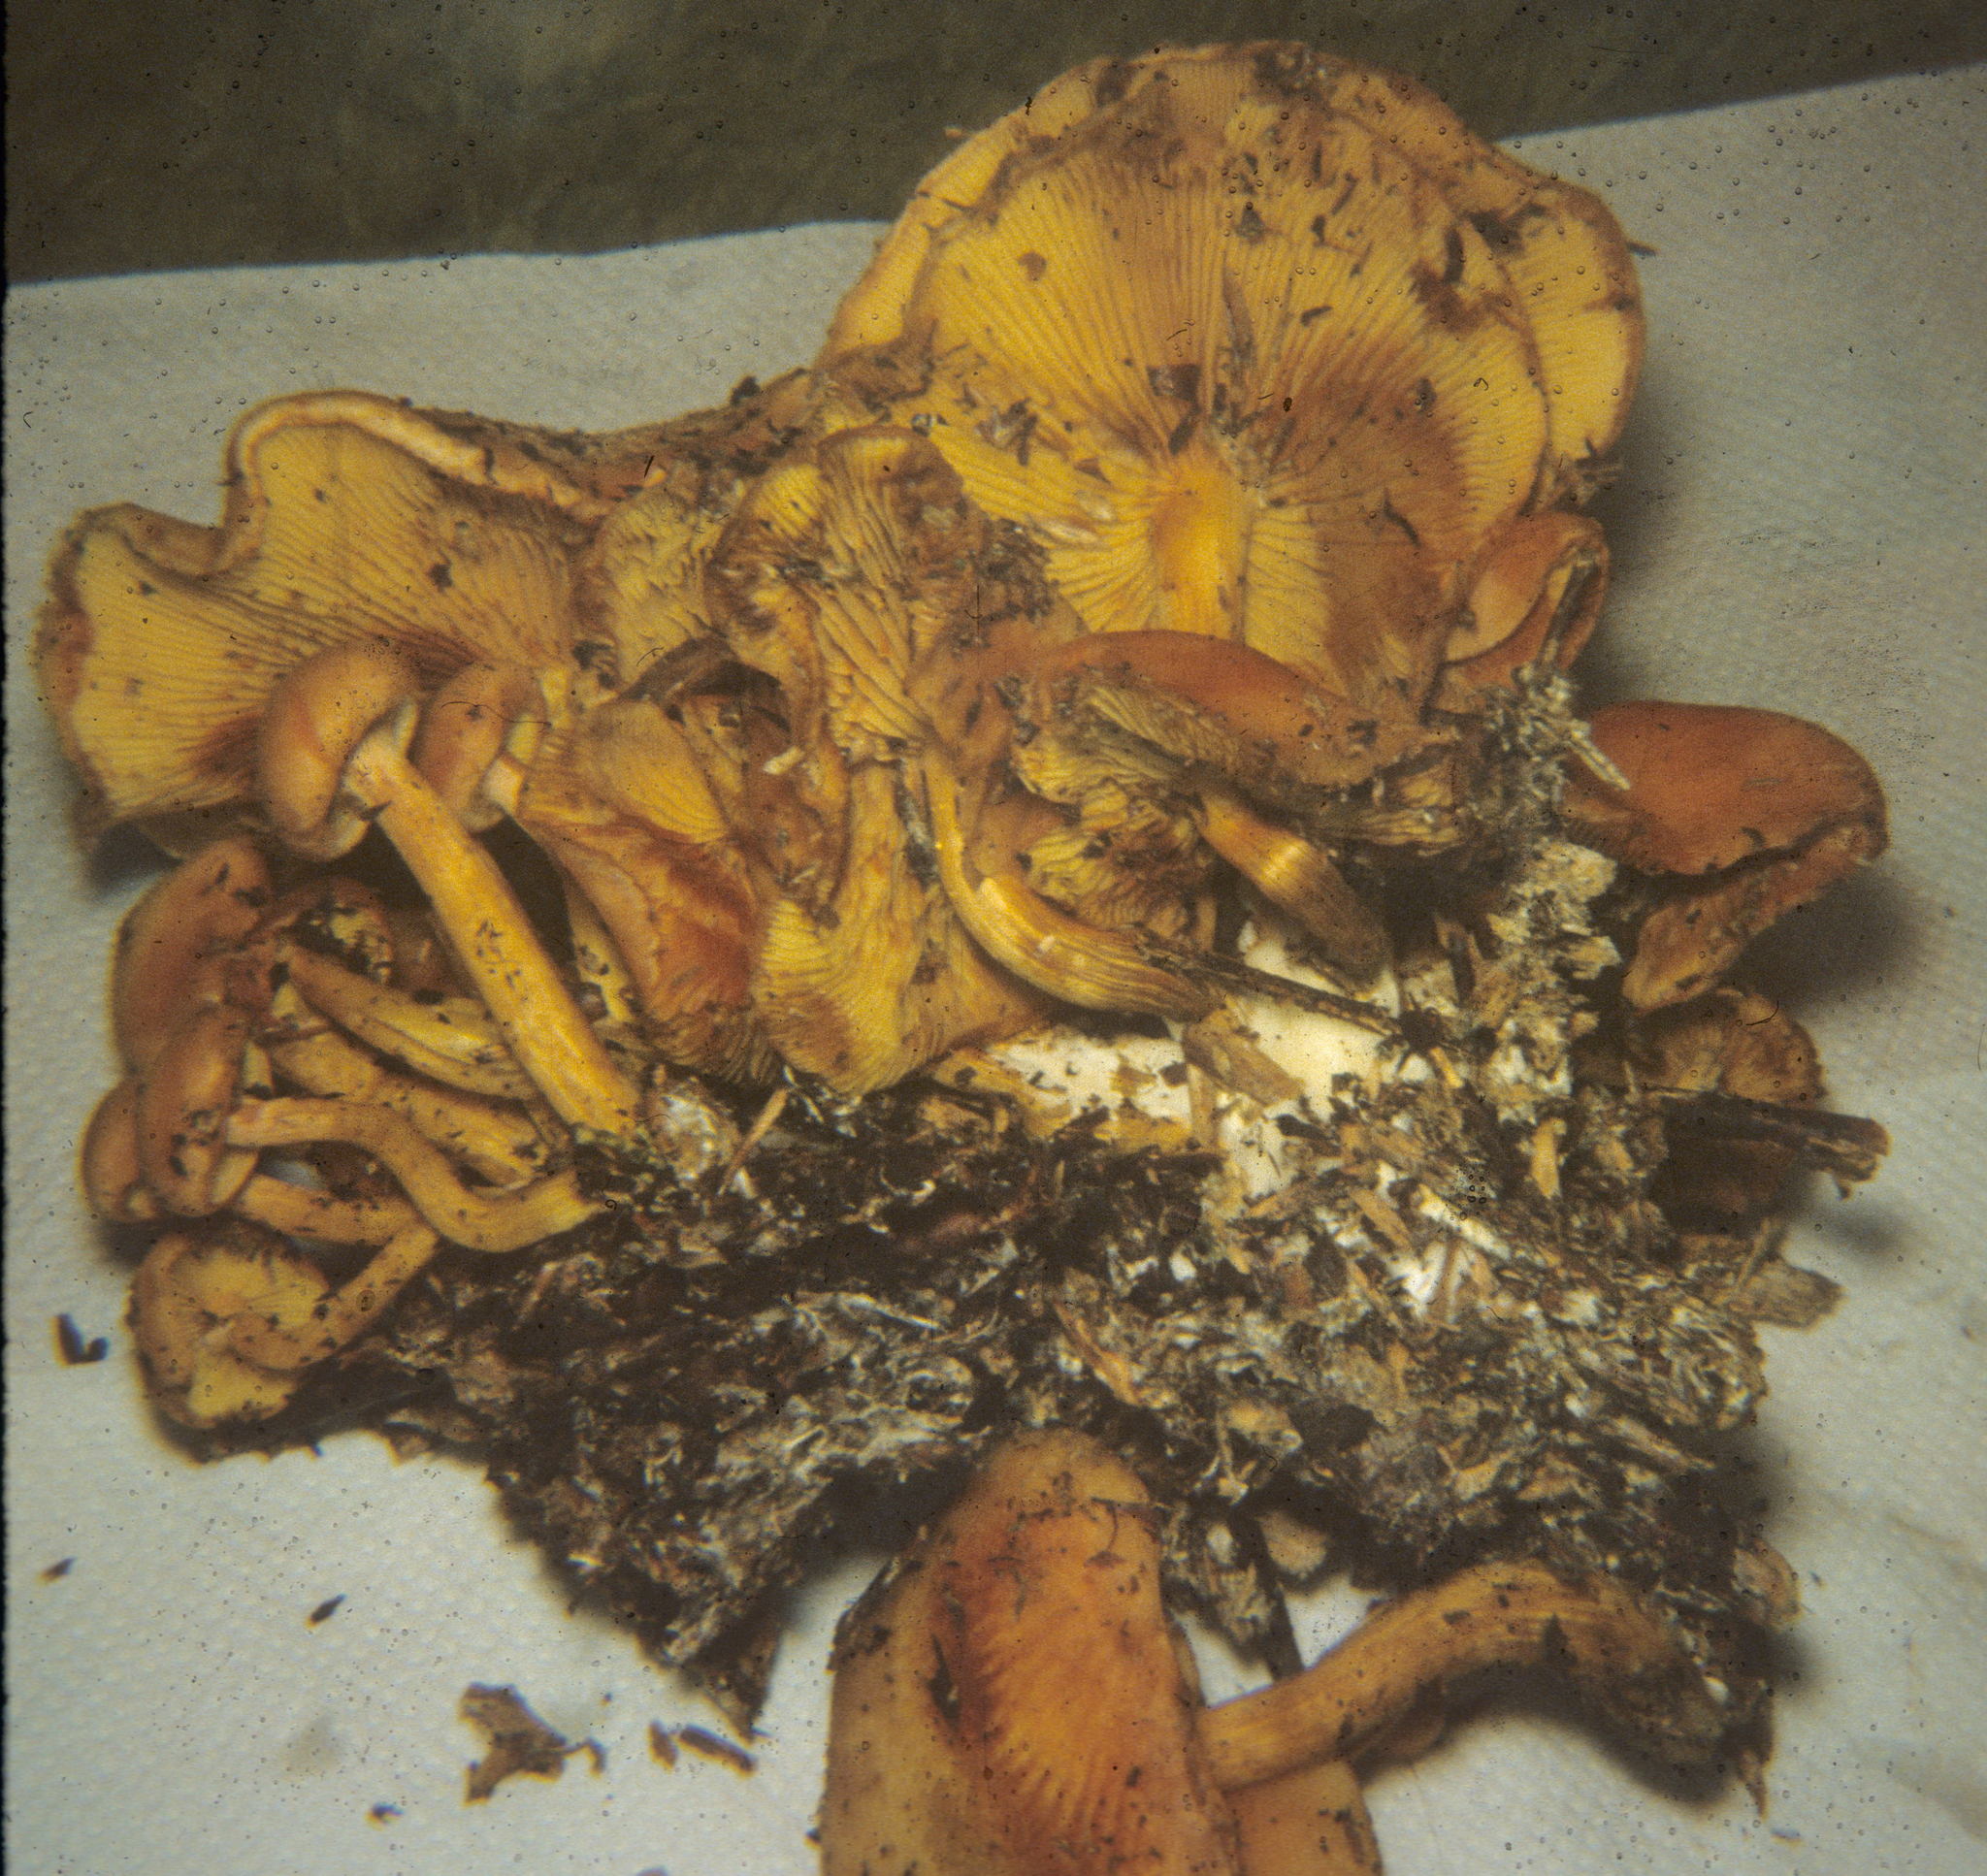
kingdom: Fungi
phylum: Basidiomycota
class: Agaricomycetes
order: Agaricales
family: Hymenogastraceae
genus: Gymnopilus
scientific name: Gymnopilus aeruginosus
